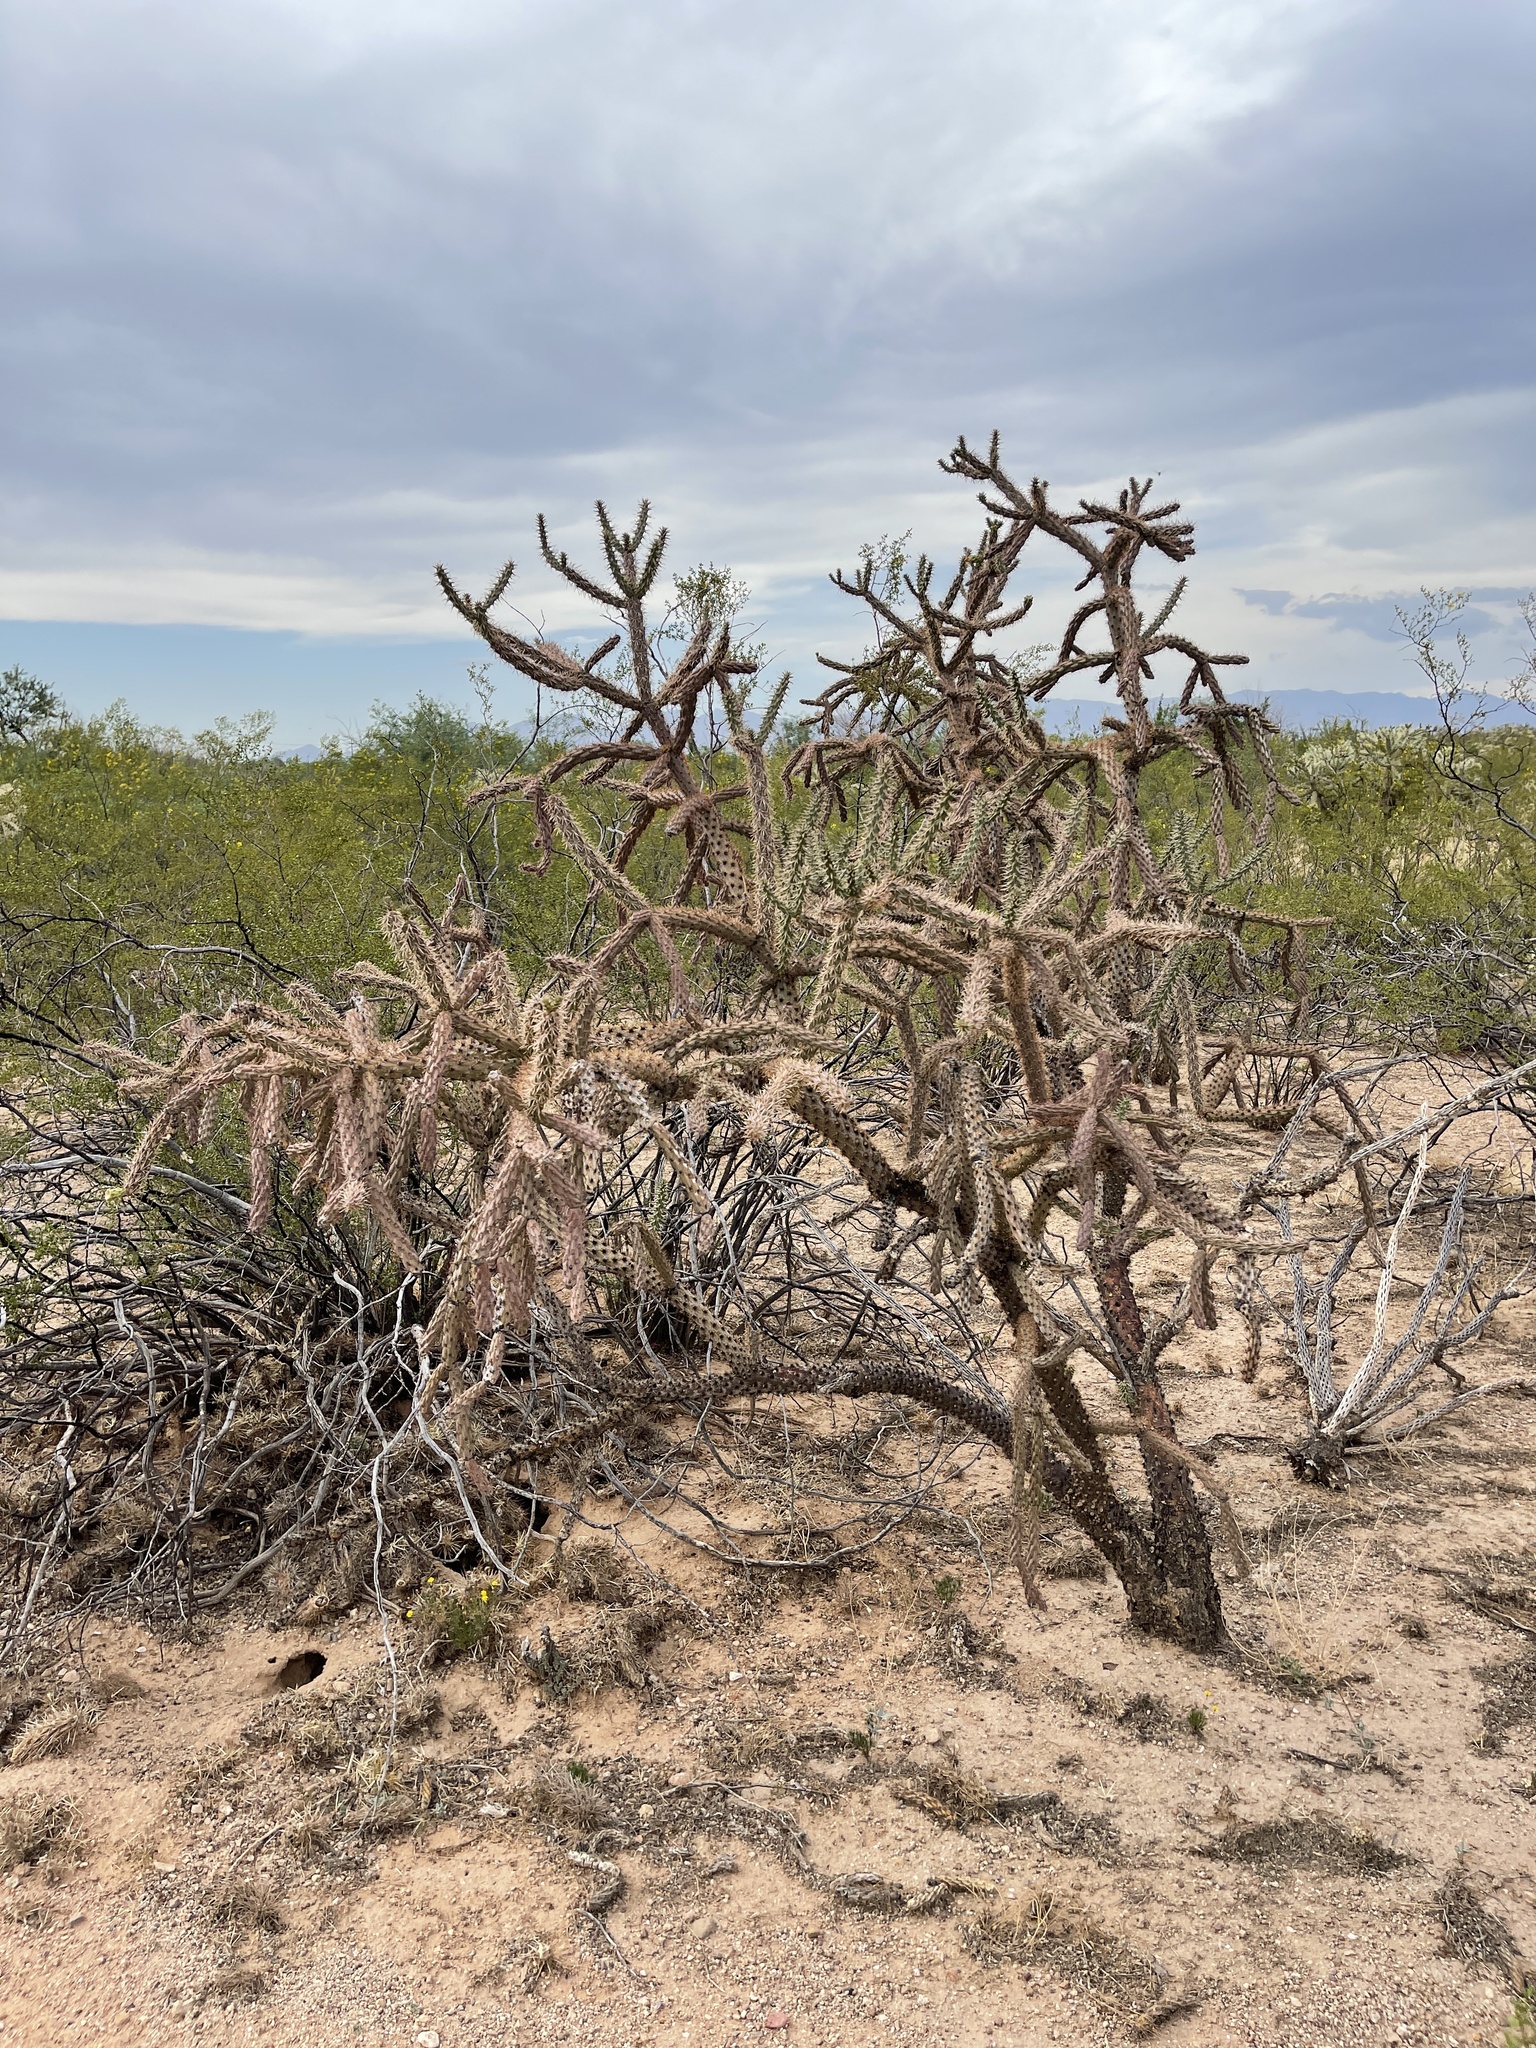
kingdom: Plantae
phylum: Tracheophyta
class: Magnoliopsida
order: Caryophyllales
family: Cactaceae
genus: Cylindropuntia
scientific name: Cylindropuntia thurberi
